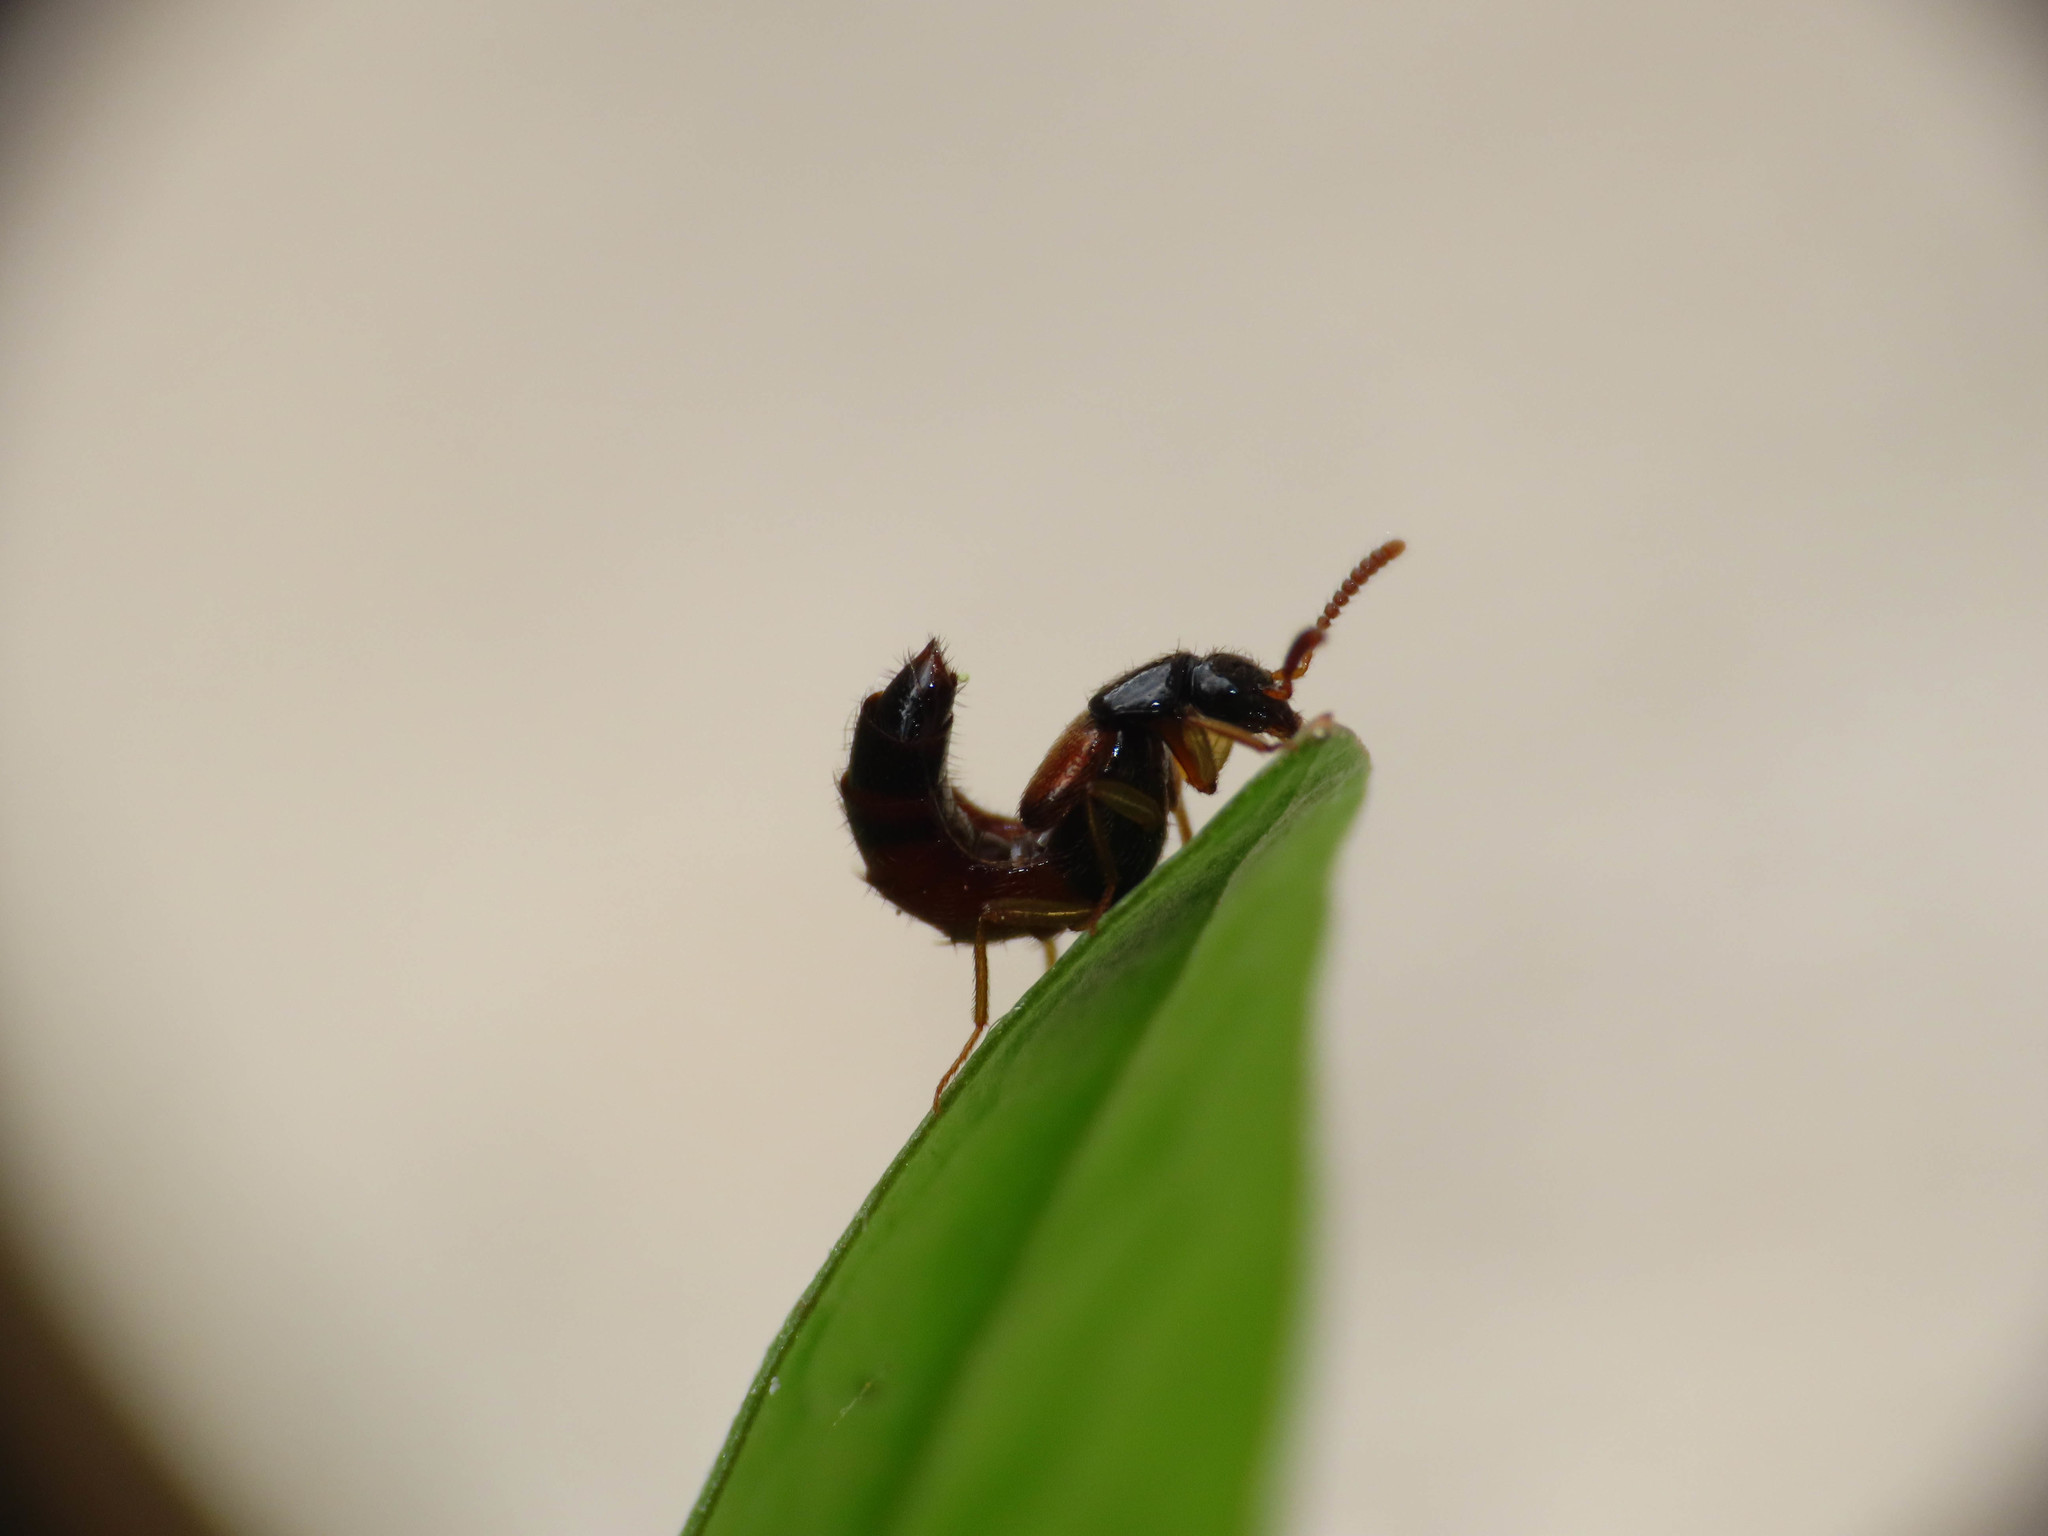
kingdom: Animalia
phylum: Arthropoda
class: Insecta
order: Coleoptera
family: Staphylinidae
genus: Zyras
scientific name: Zyras haworthi
